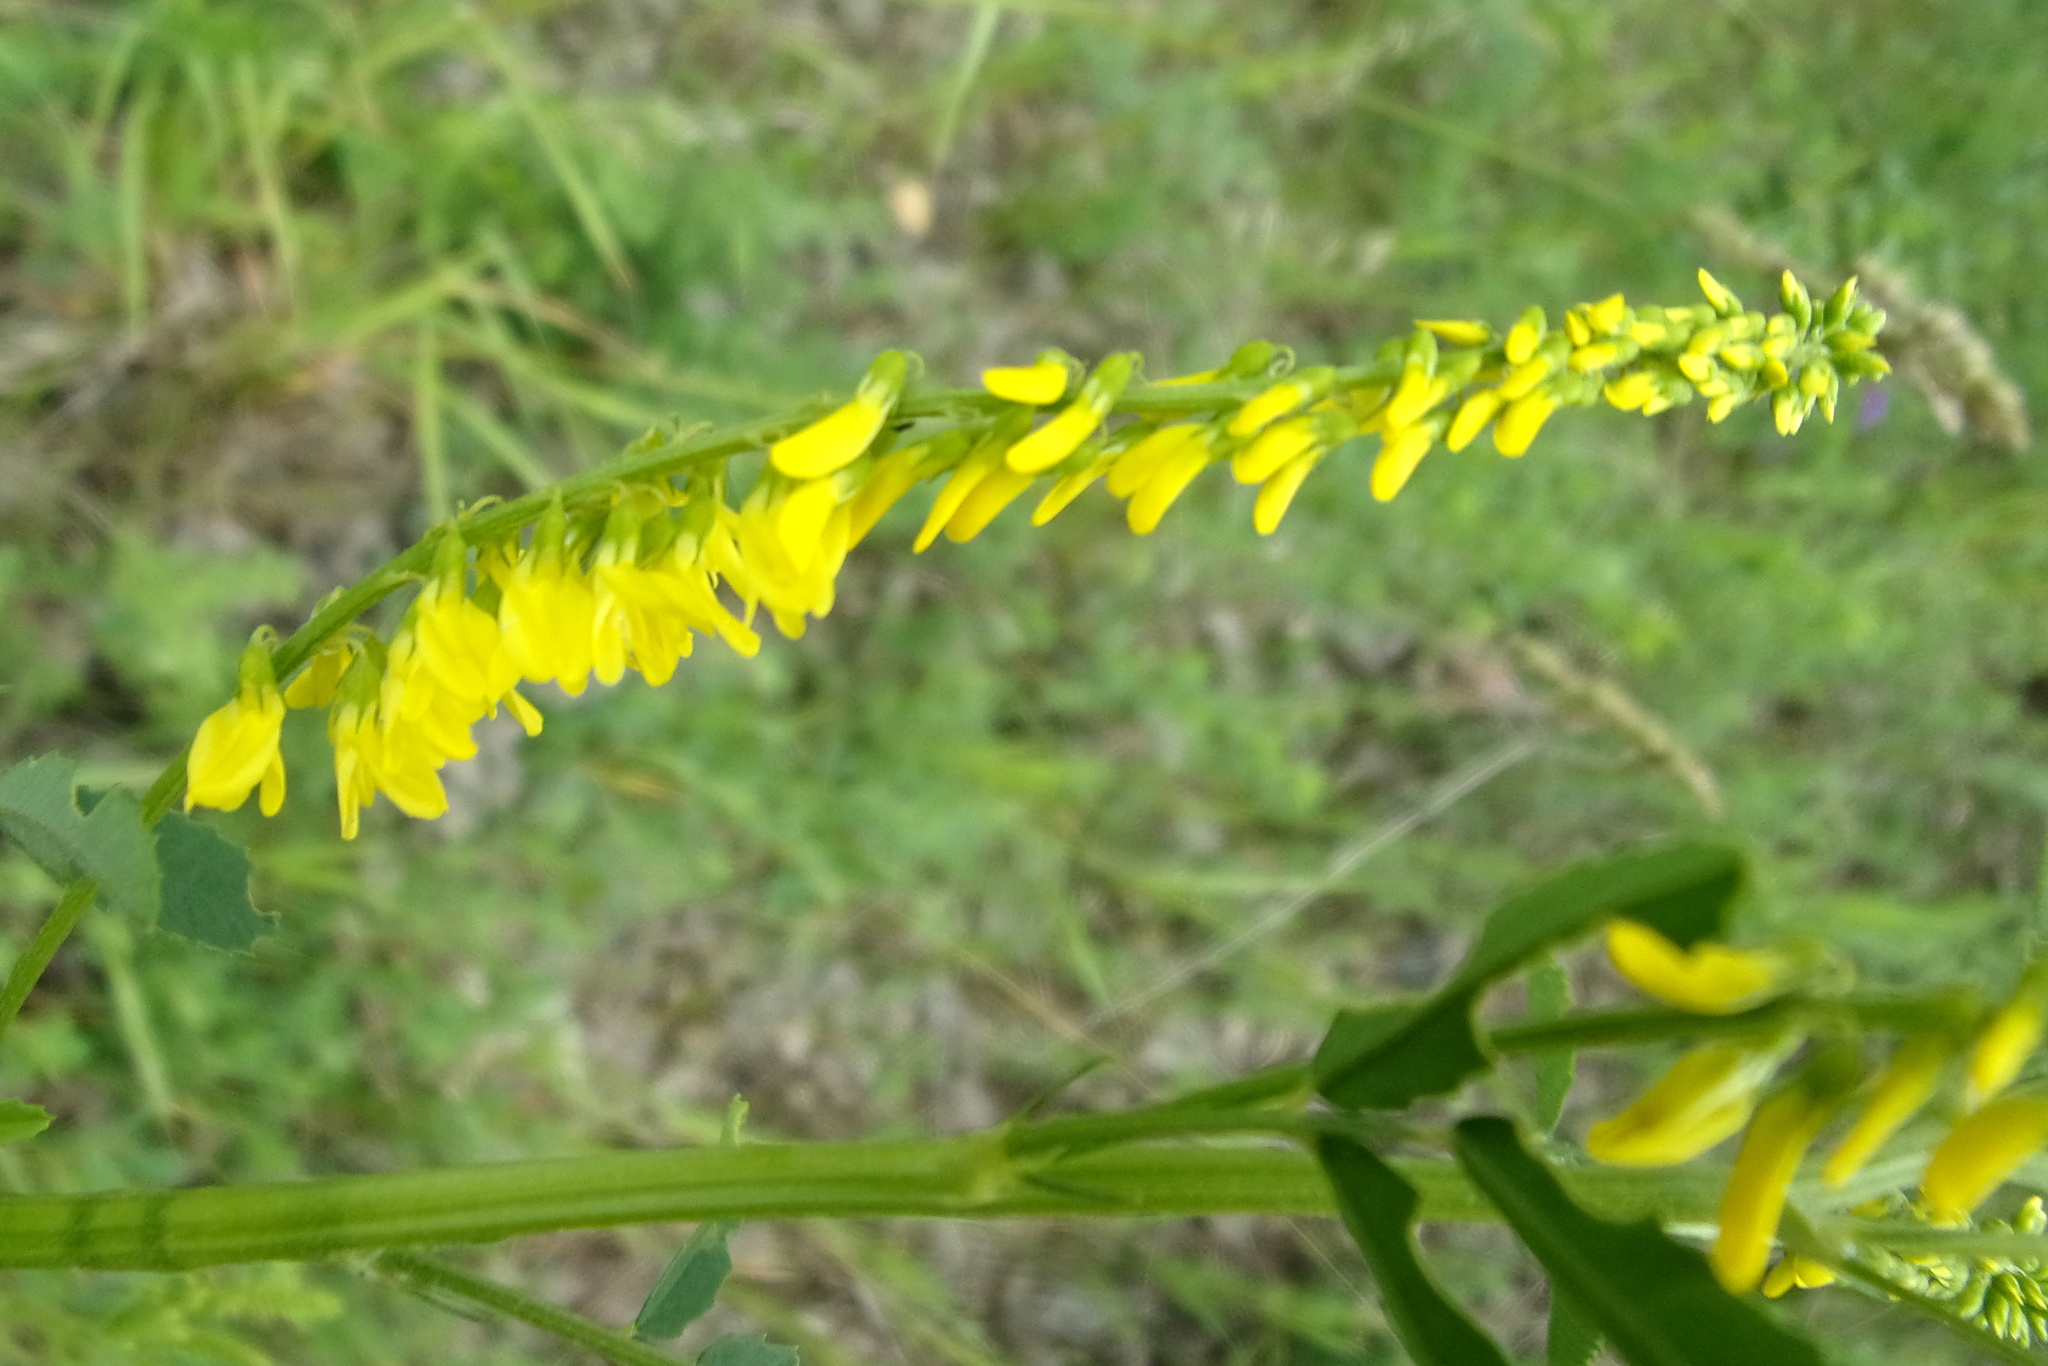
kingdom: Plantae
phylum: Tracheophyta
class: Magnoliopsida
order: Fabales
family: Fabaceae
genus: Melilotus
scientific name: Melilotus officinalis
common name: Sweetclover
